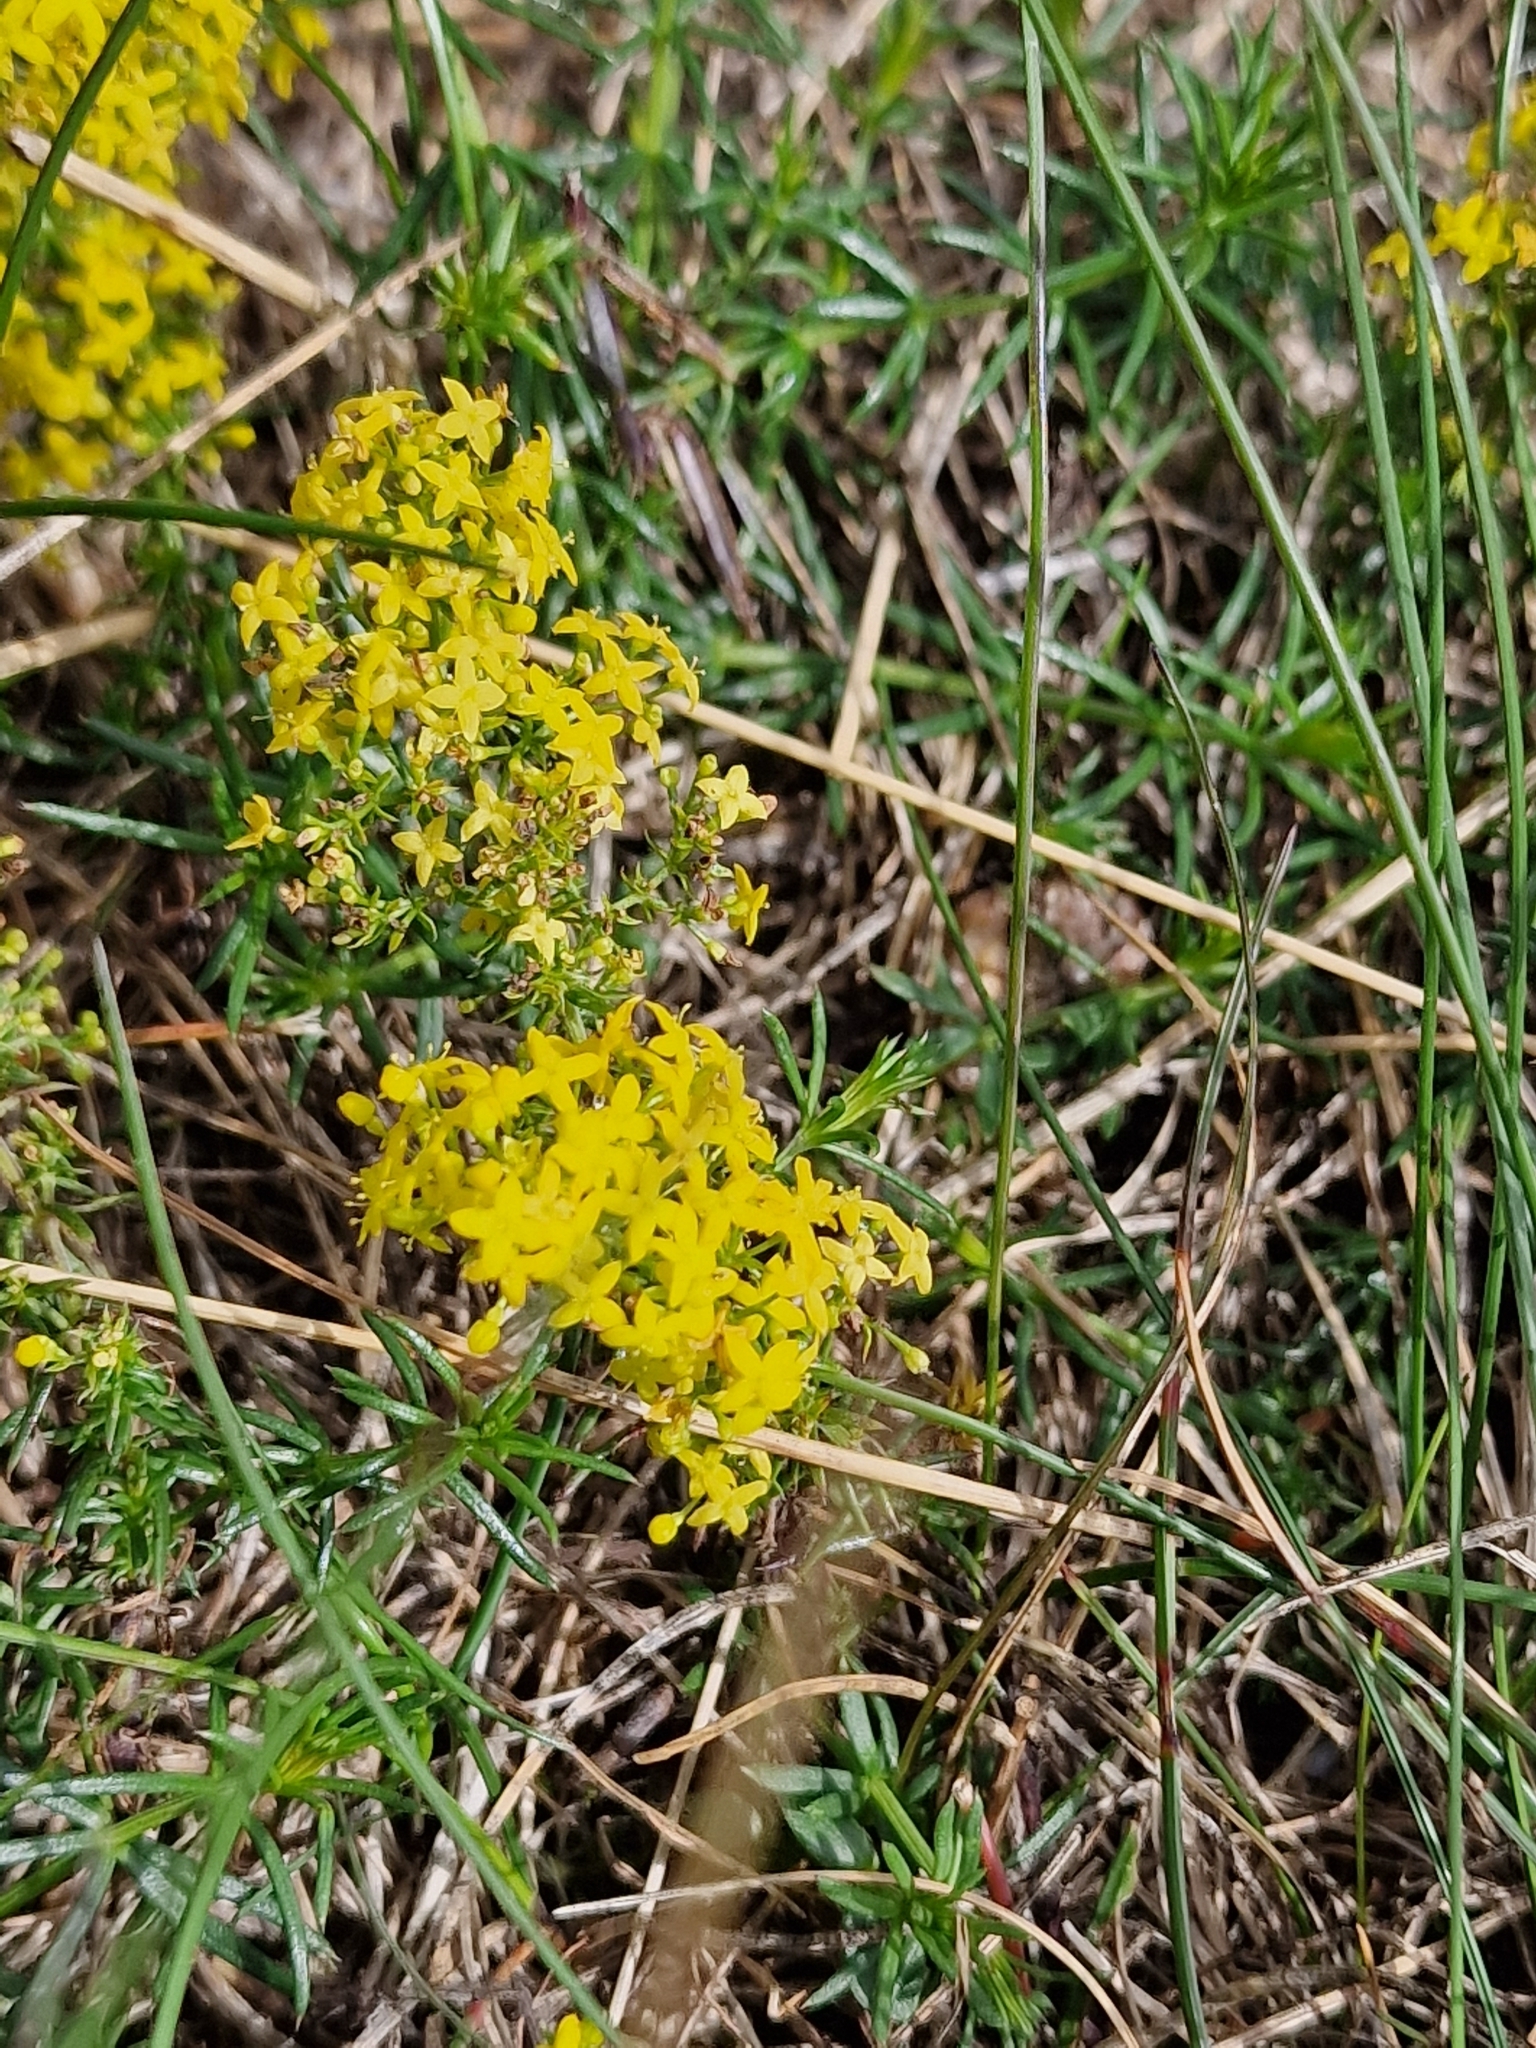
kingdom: Plantae
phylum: Tracheophyta
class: Magnoliopsida
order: Gentianales
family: Rubiaceae
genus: Galium
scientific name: Galium verum
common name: Lady's bedstraw
